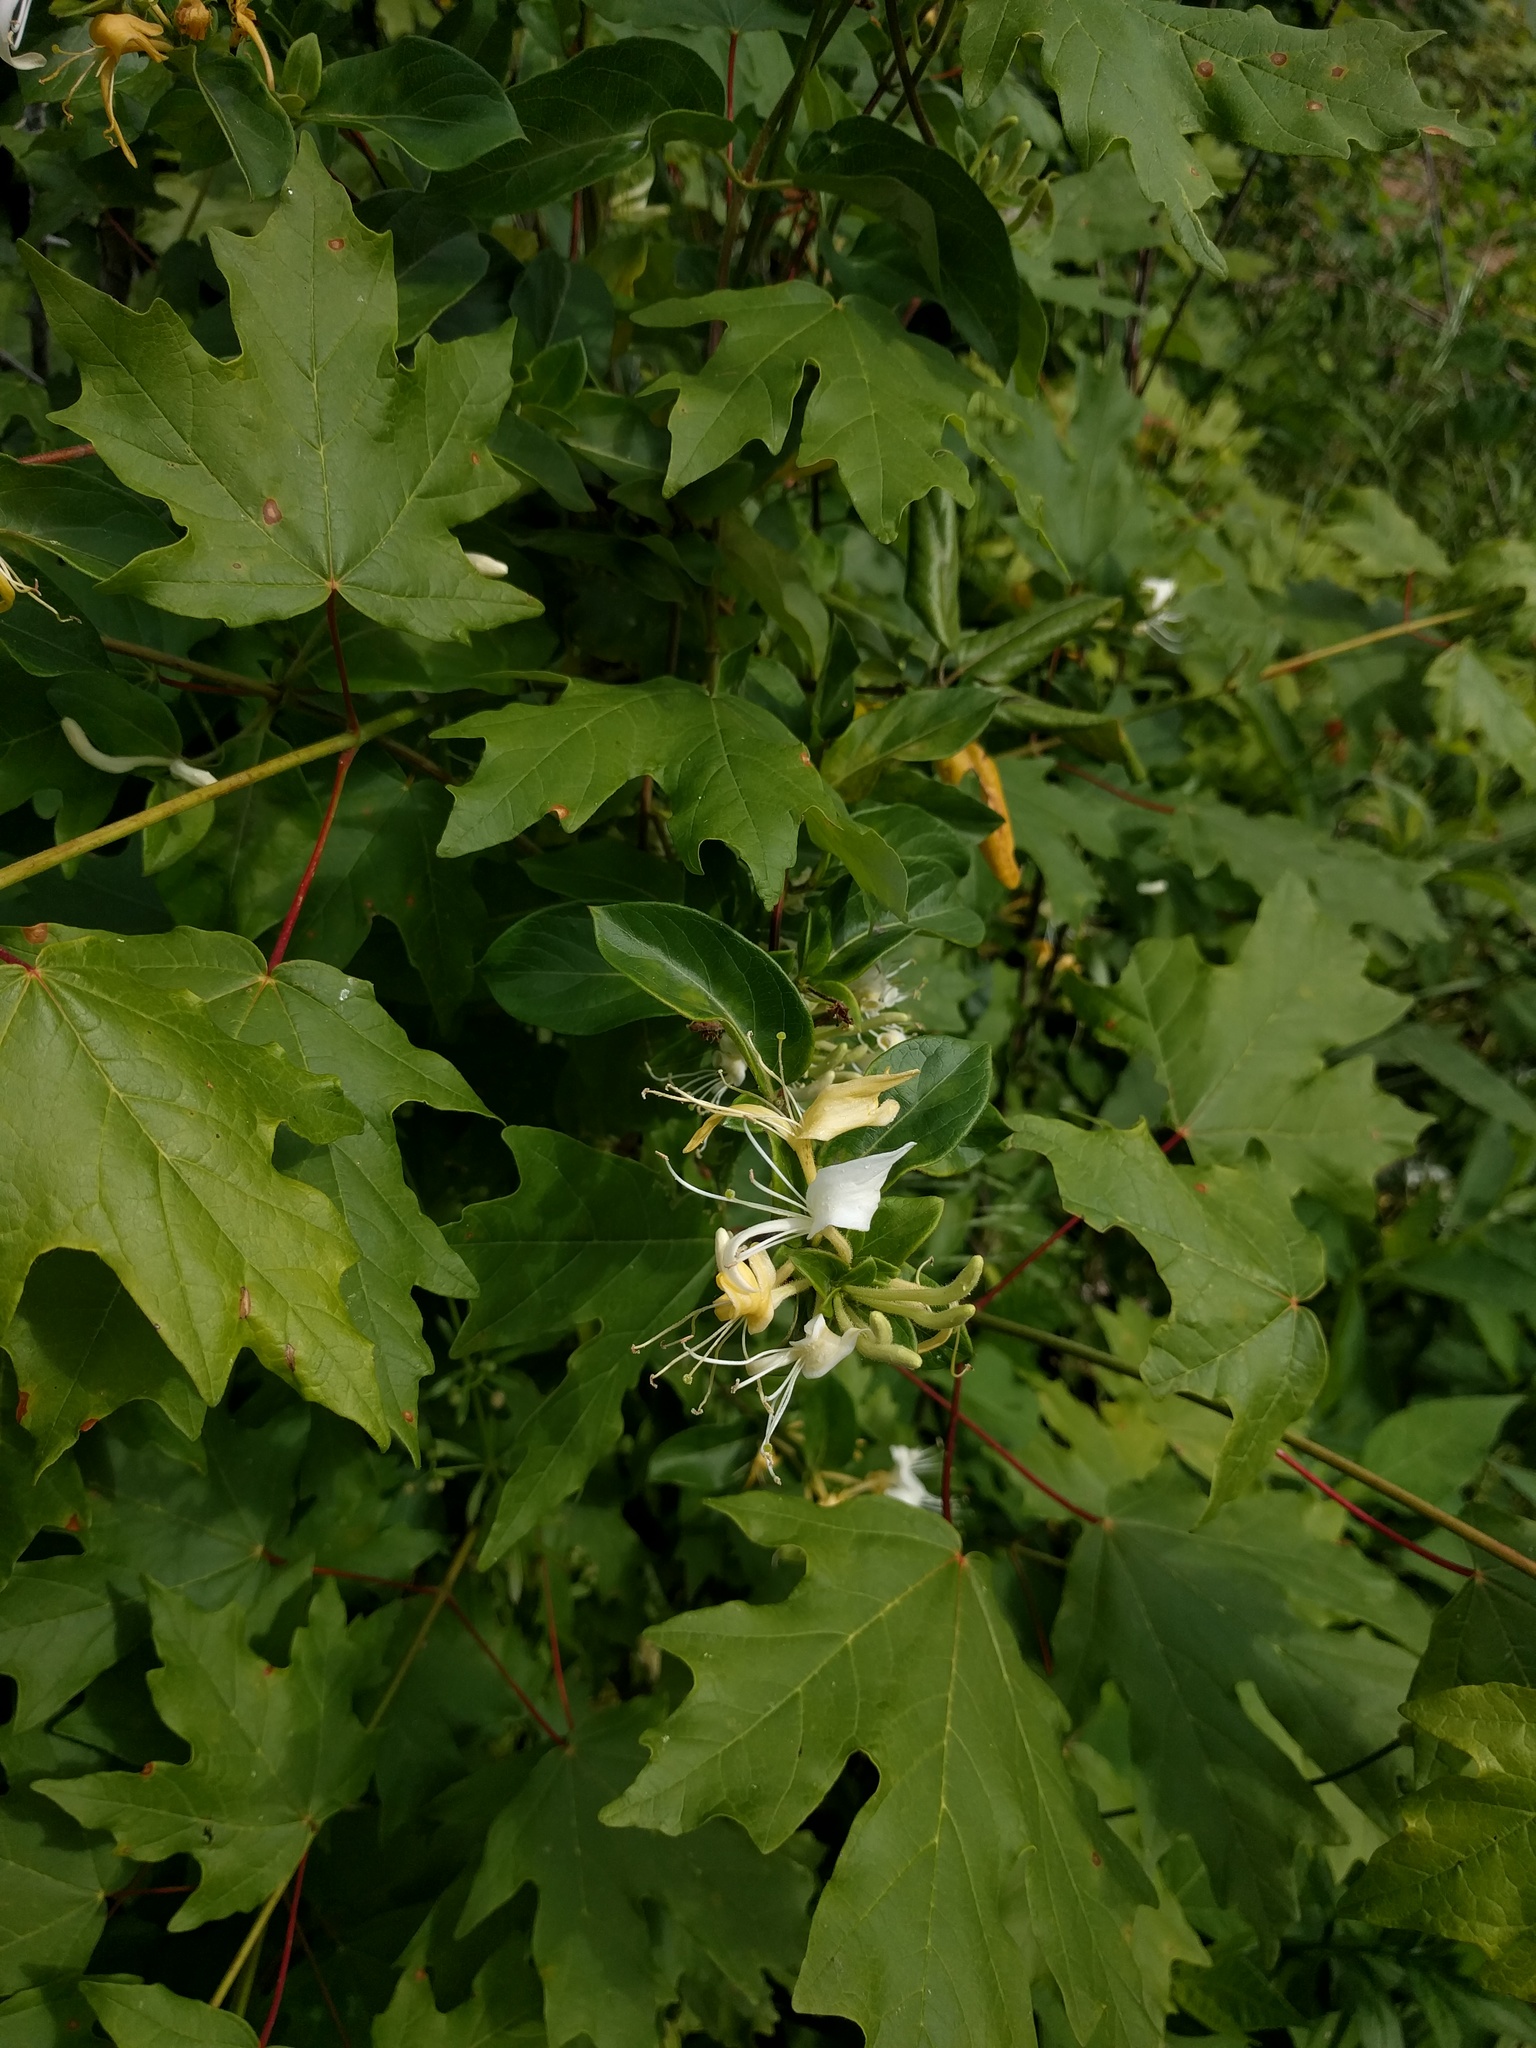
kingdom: Plantae
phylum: Tracheophyta
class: Magnoliopsida
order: Dipsacales
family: Caprifoliaceae
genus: Lonicera
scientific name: Lonicera japonica
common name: Japanese honeysuckle
